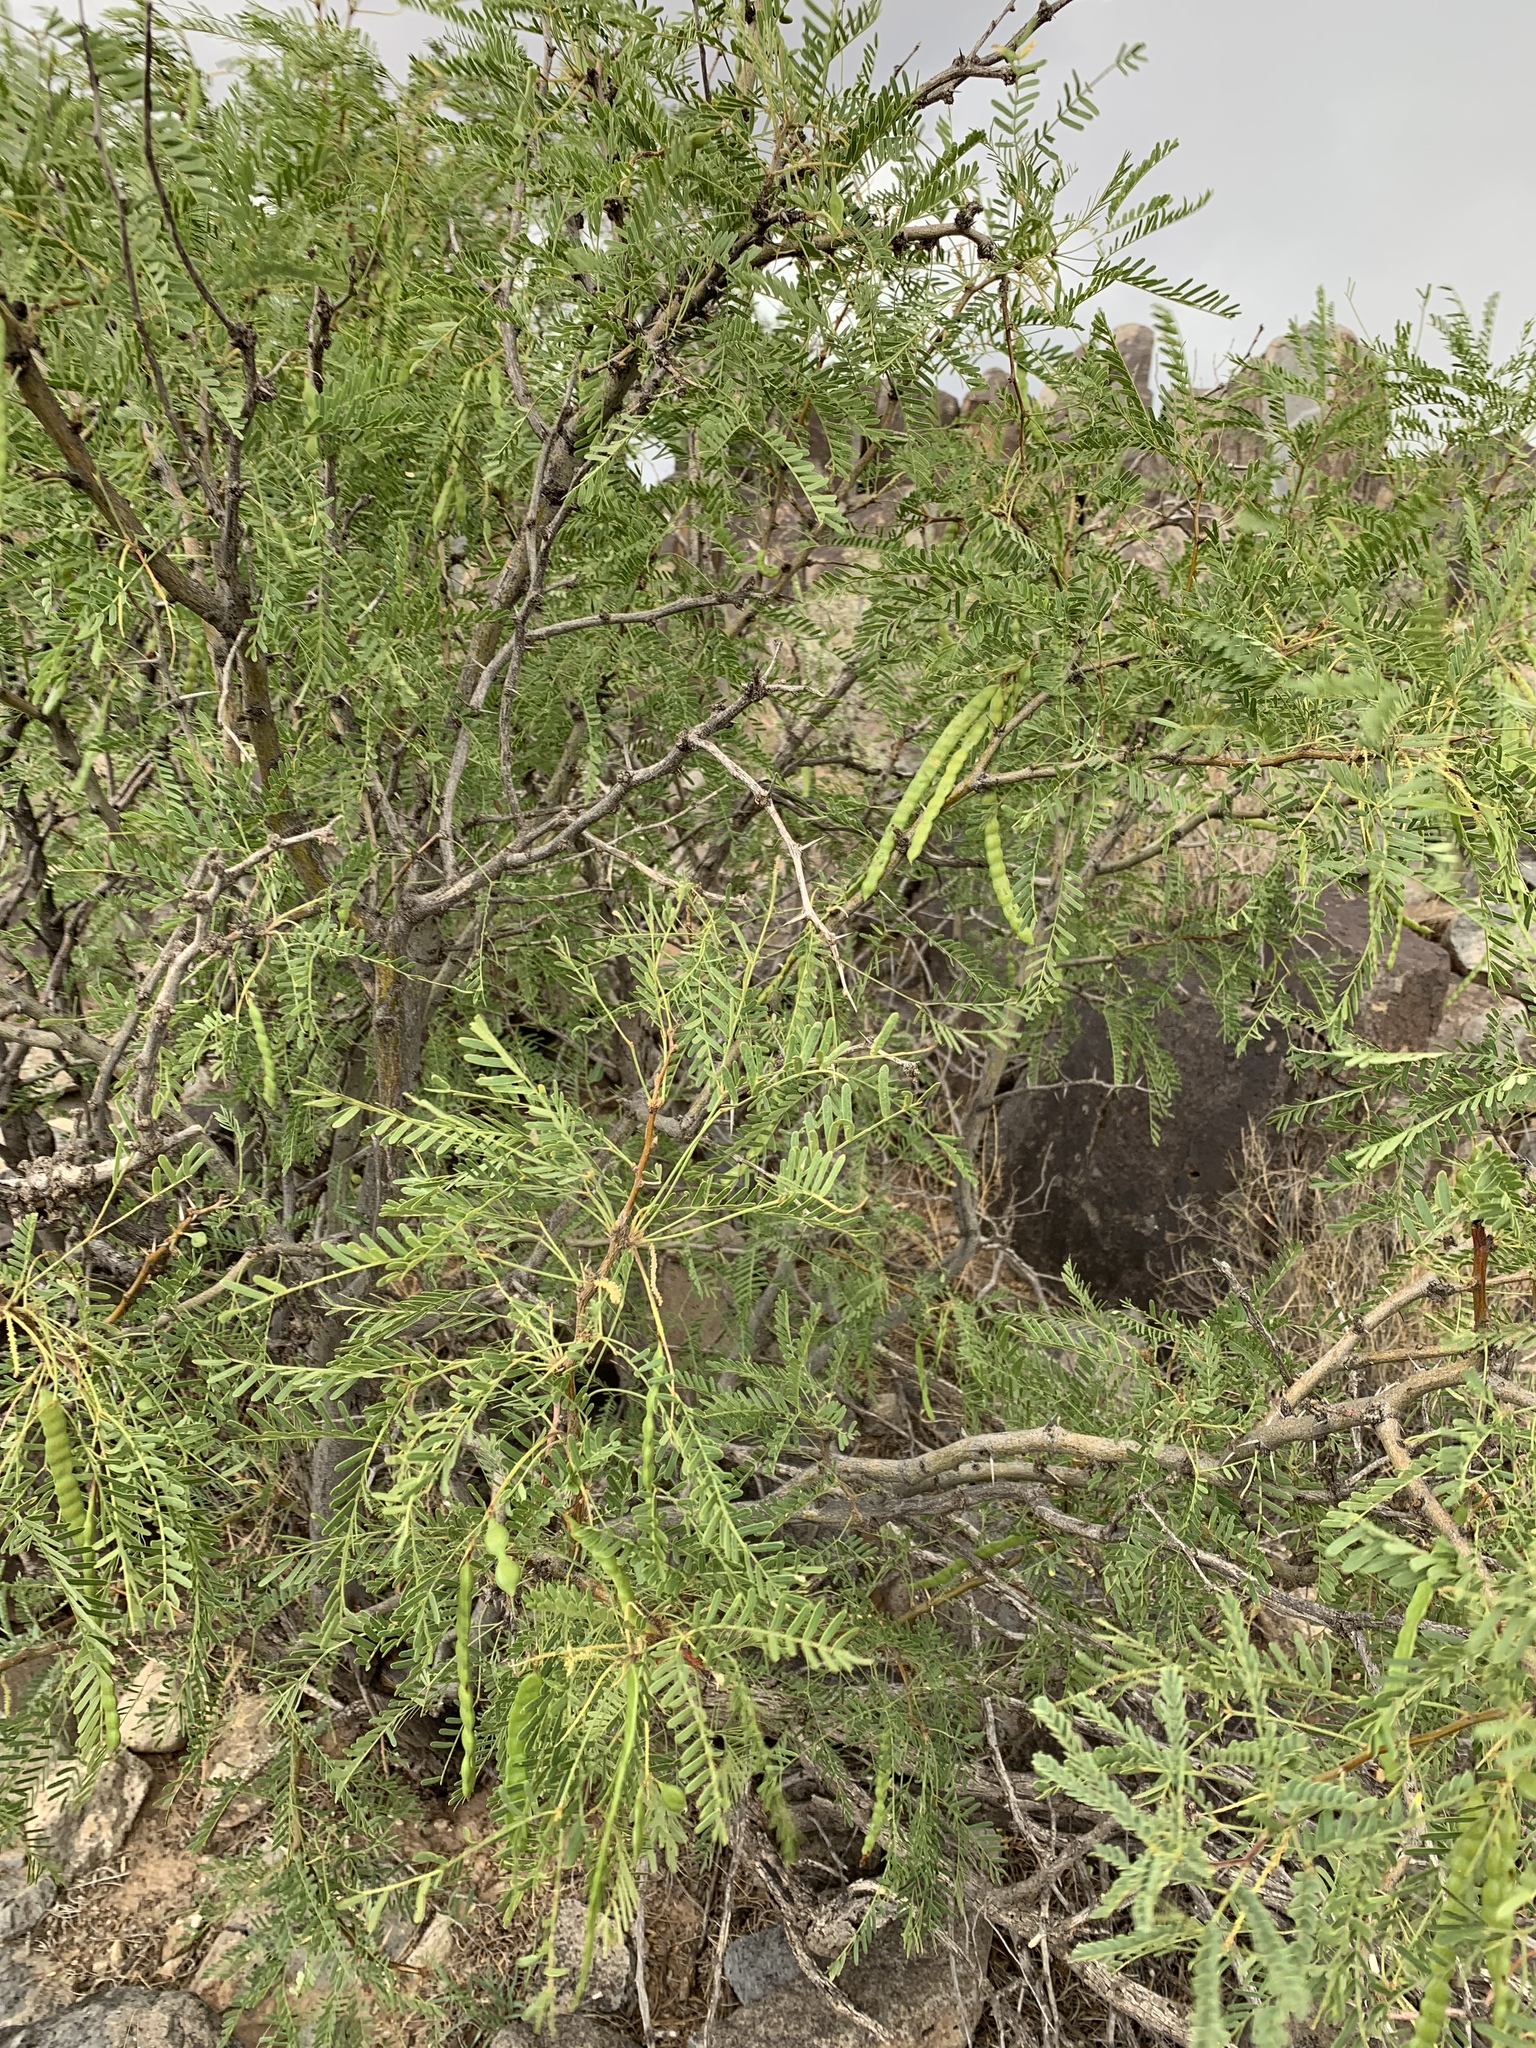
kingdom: Plantae
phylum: Tracheophyta
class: Magnoliopsida
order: Fabales
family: Fabaceae
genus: Prosopis
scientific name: Prosopis pubescens
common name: Screw-bean
